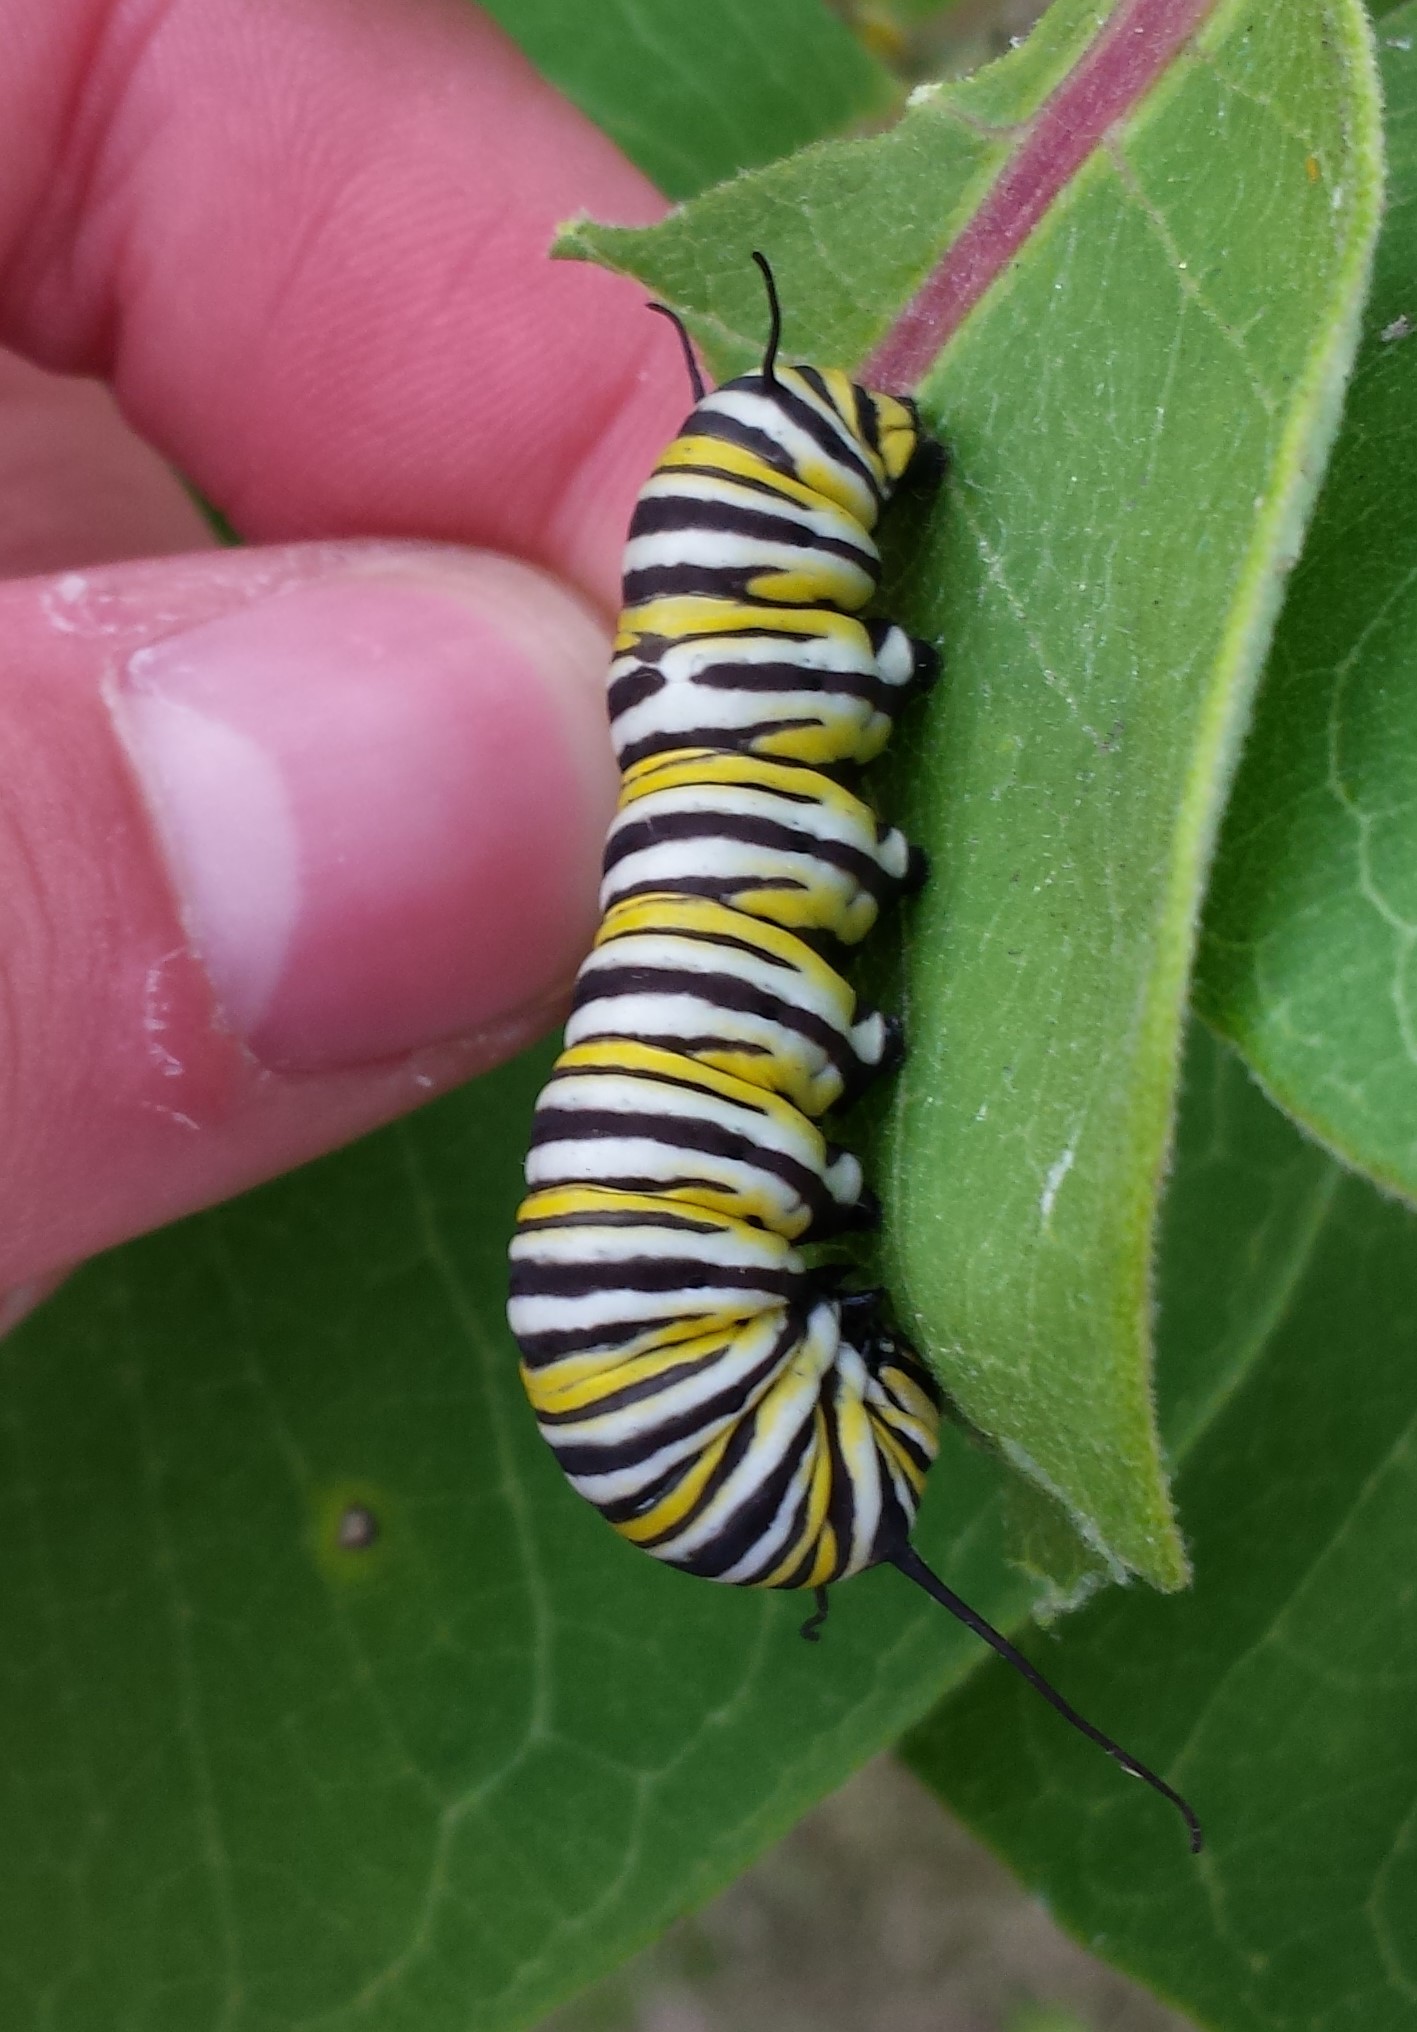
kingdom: Animalia
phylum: Arthropoda
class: Insecta
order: Lepidoptera
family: Nymphalidae
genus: Danaus
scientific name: Danaus plexippus
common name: Monarch
